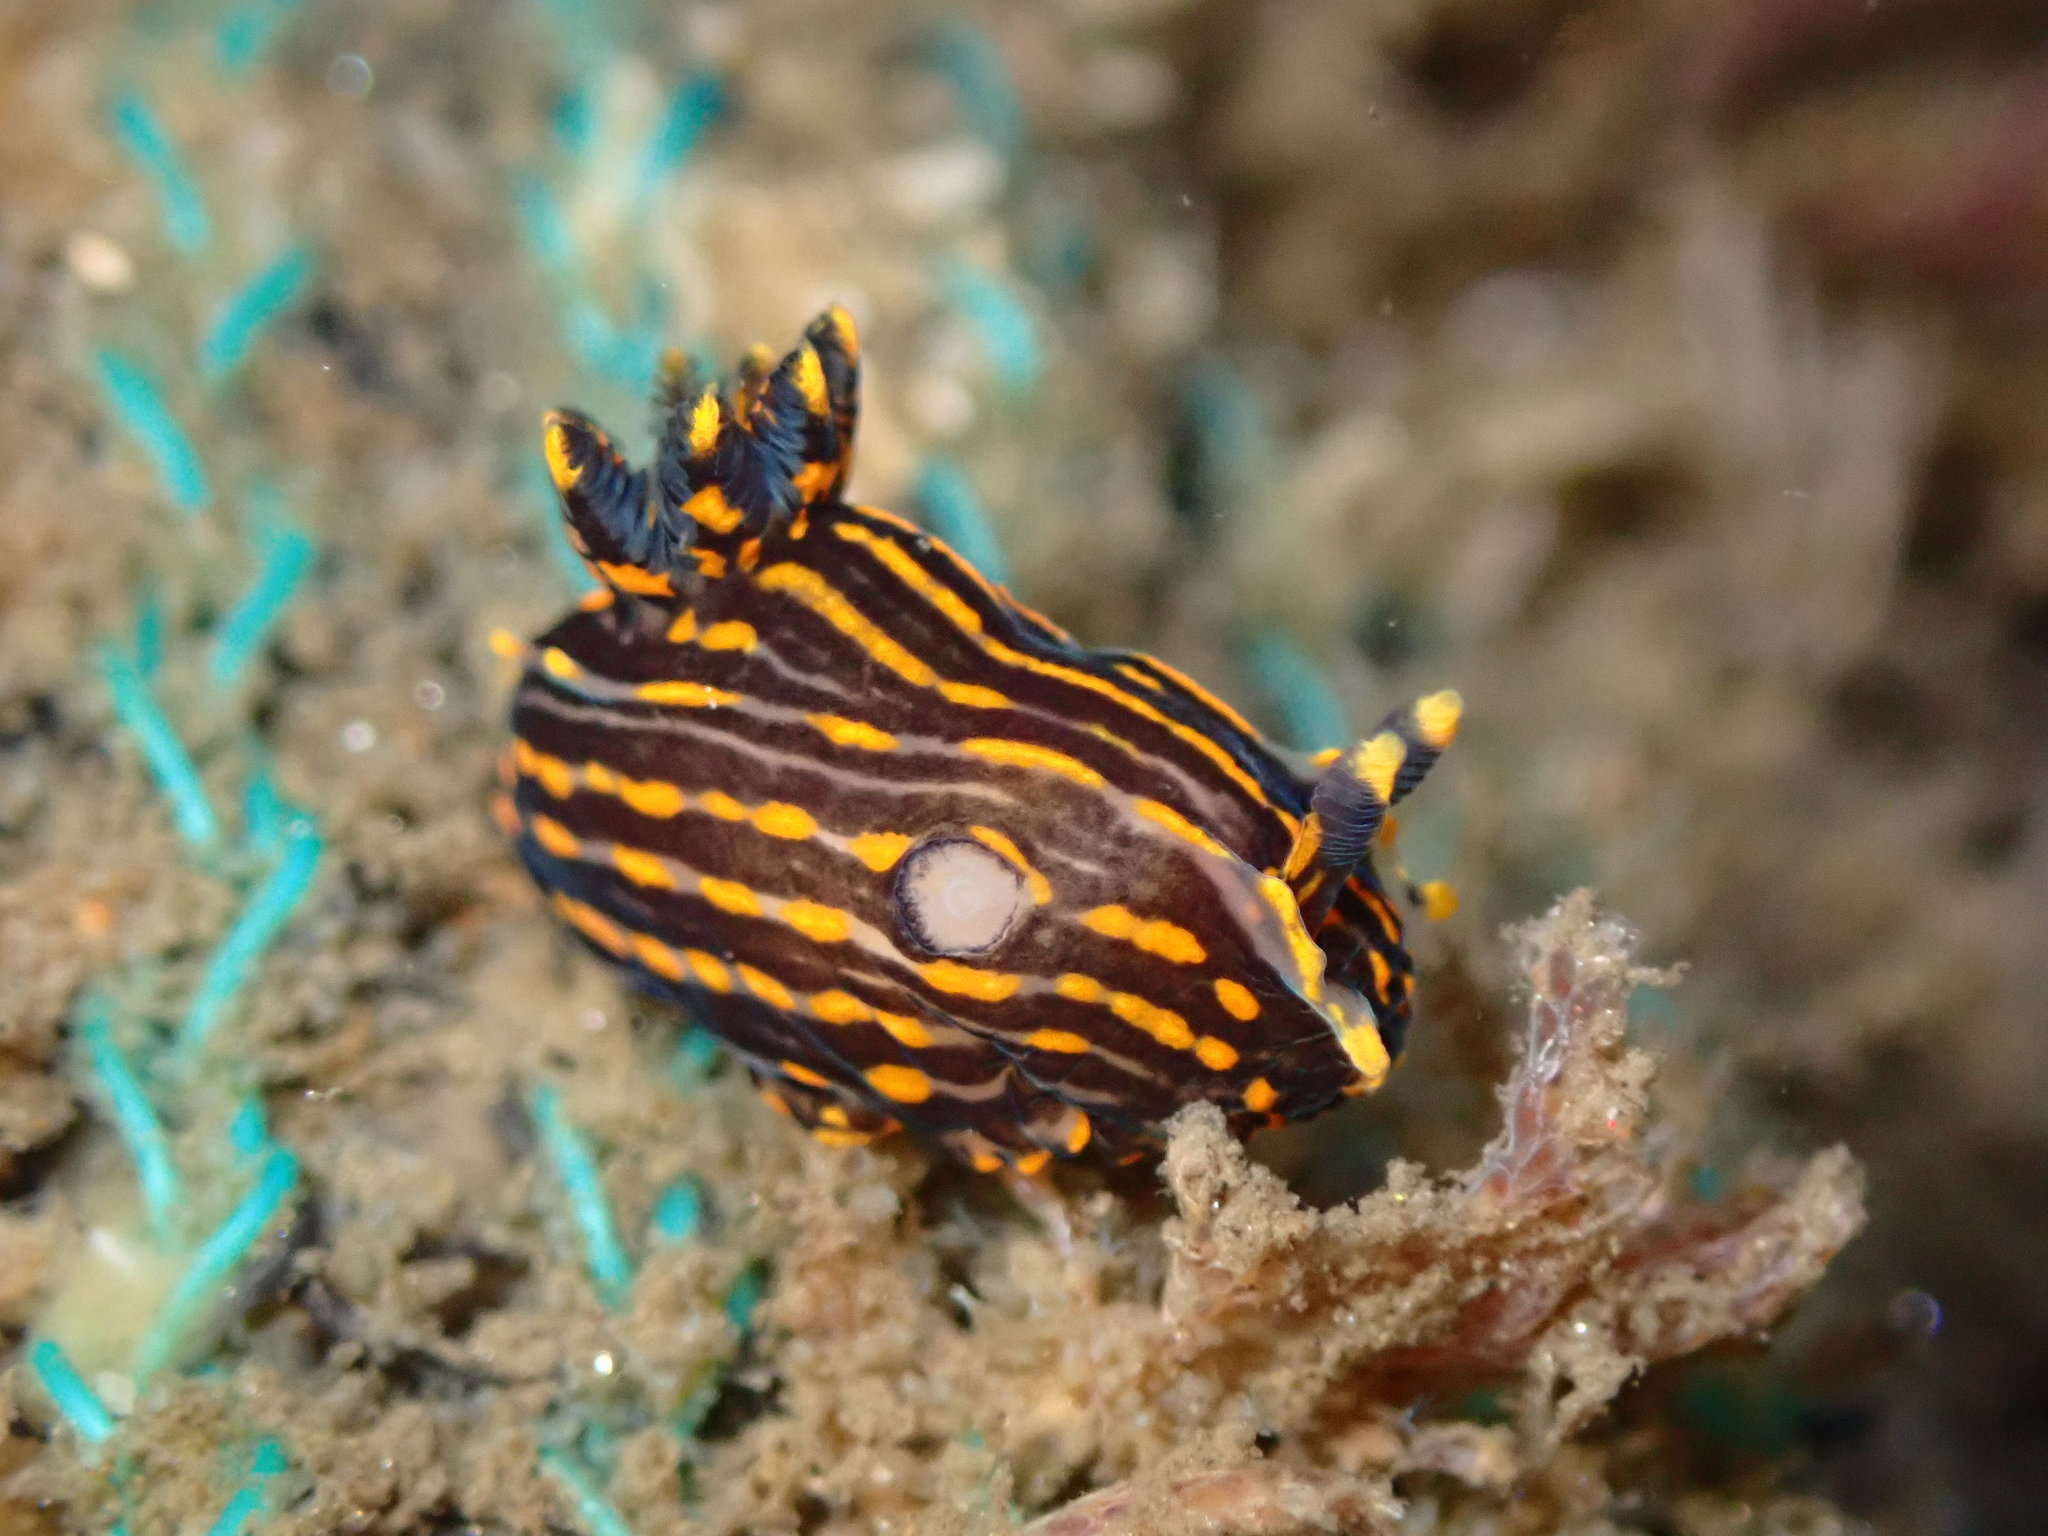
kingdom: Animalia
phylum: Mollusca
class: Gastropoda
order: Nudibranchia
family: Polyceridae
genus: Polycera
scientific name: Polycera atra
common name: Orange-spike polycera
